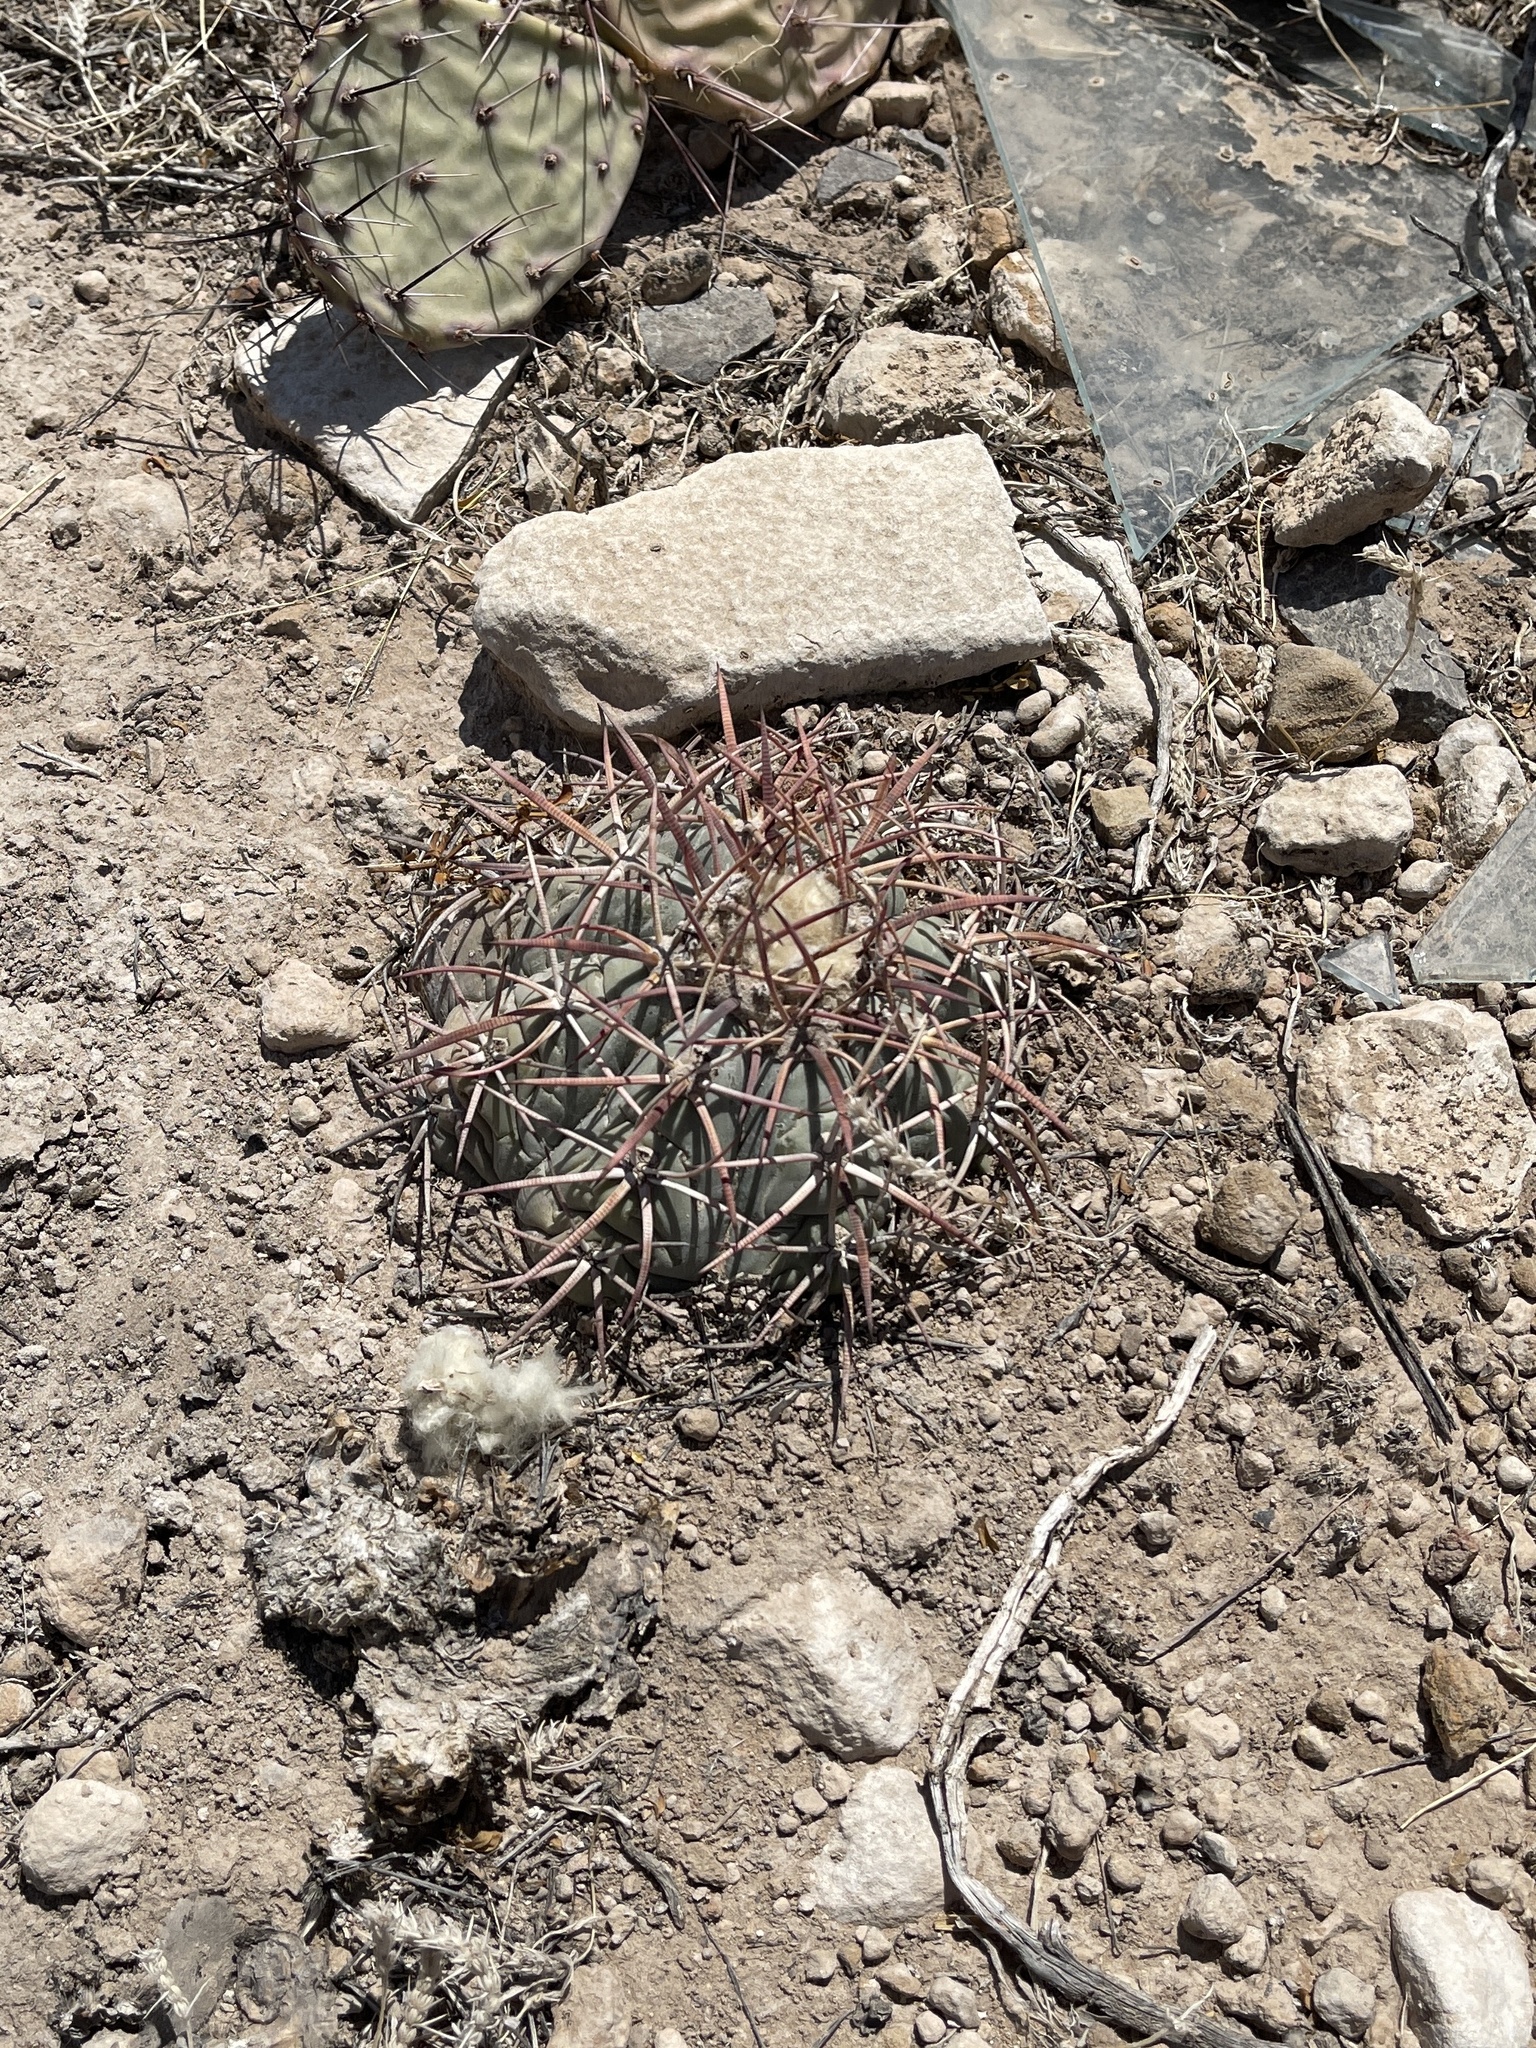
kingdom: Plantae
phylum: Tracheophyta
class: Magnoliopsida
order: Caryophyllales
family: Cactaceae
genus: Echinocactus
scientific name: Echinocactus horizonthalonius
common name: Devilshead
